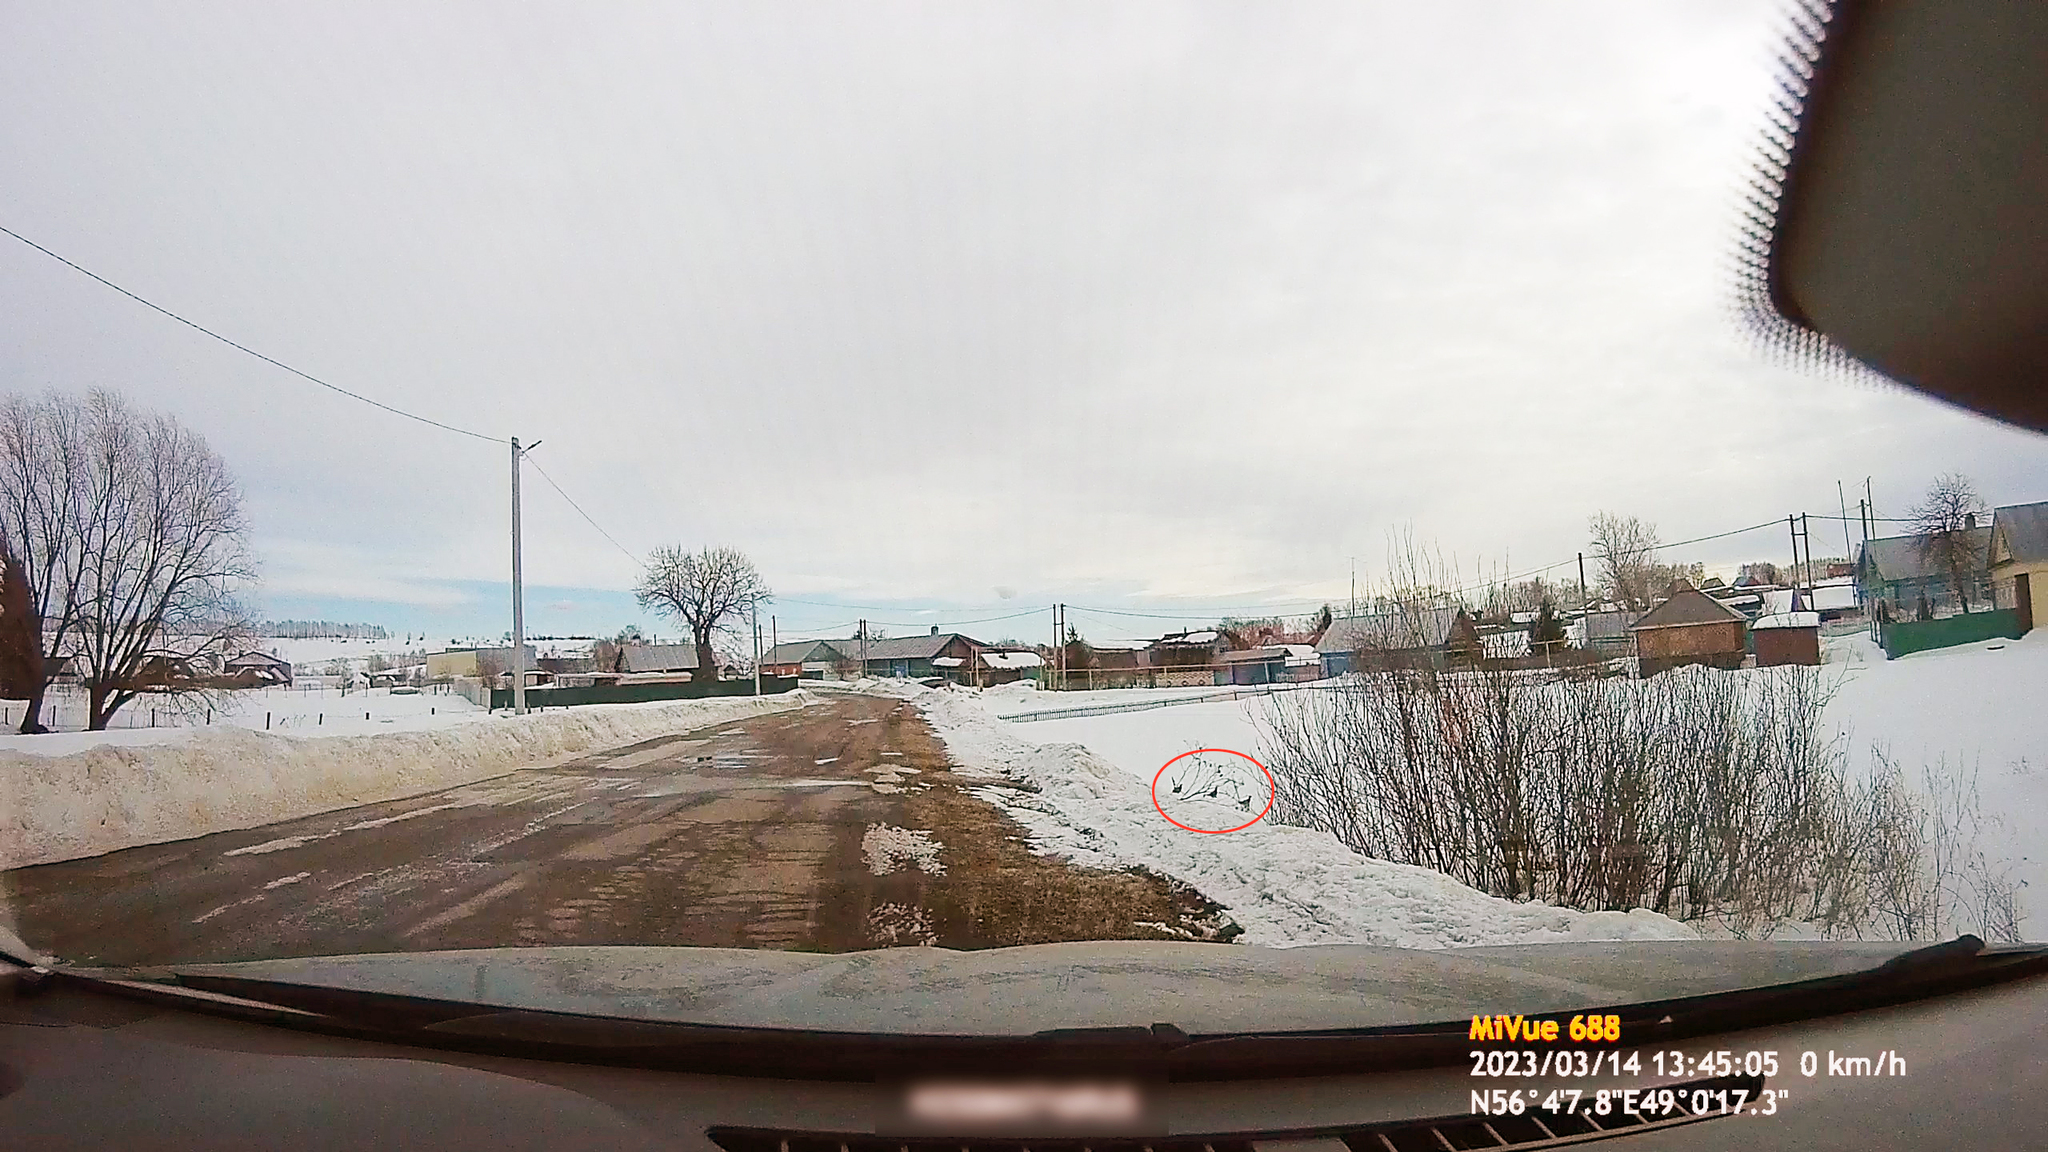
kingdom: Animalia
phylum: Chordata
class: Aves
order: Galliformes
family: Phasianidae
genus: Perdix
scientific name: Perdix perdix
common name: Grey partridge
